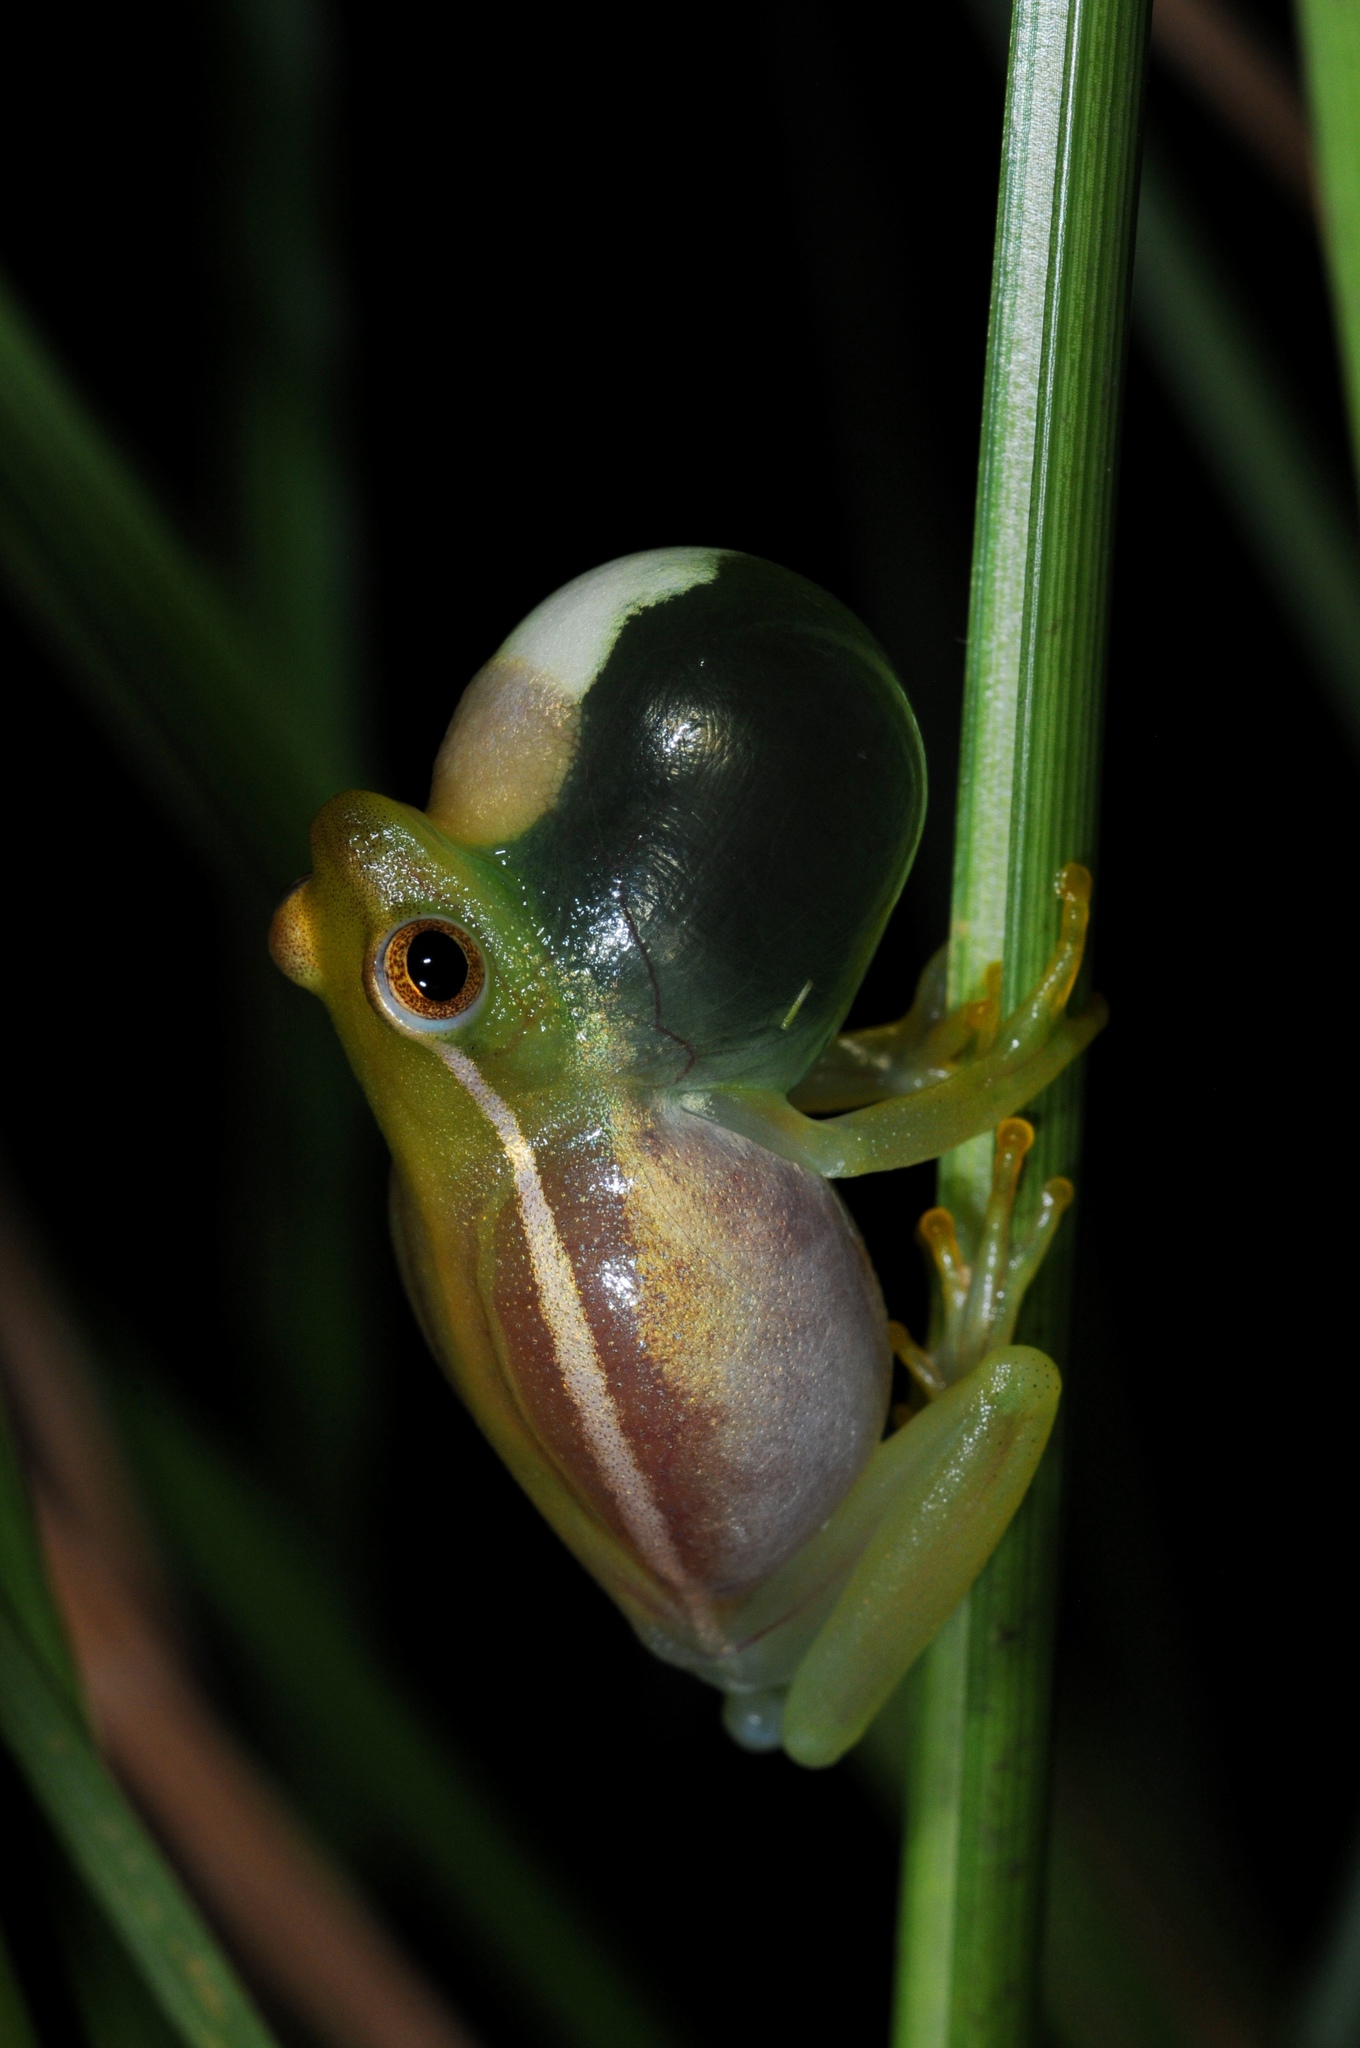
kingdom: Animalia
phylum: Chordata
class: Amphibia
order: Anura
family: Hyperoliidae
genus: Hyperolius
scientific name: Hyperolius microps
